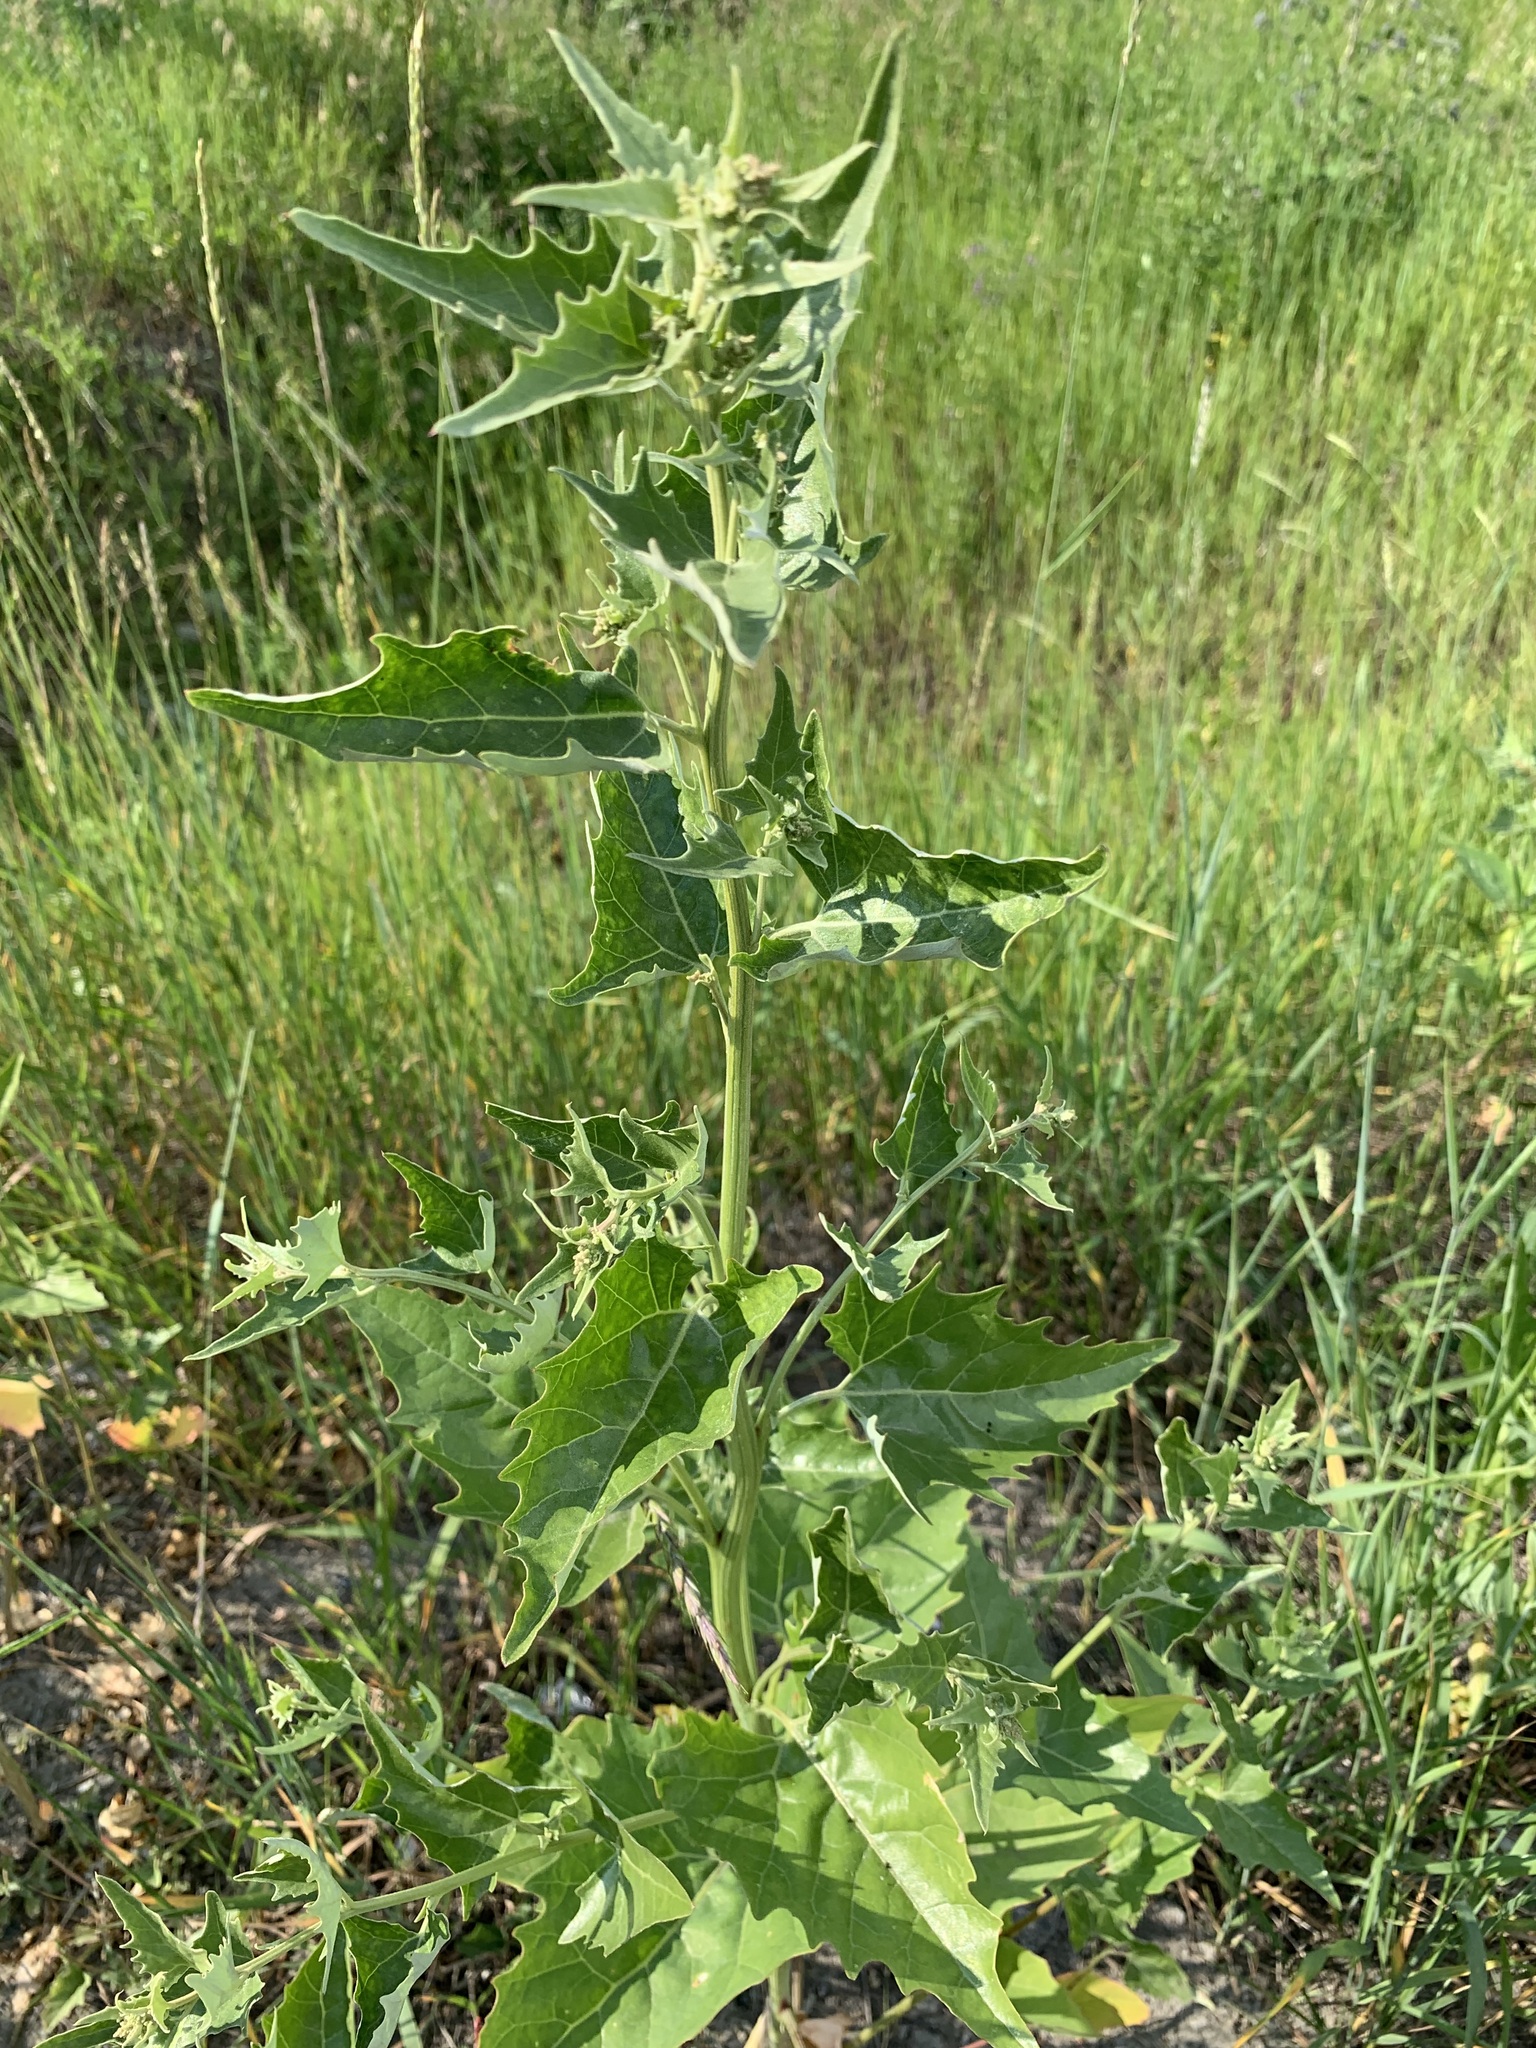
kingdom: Plantae
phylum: Tracheophyta
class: Magnoliopsida
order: Caryophyllales
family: Amaranthaceae
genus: Atriplex
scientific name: Atriplex sagittata
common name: Purple orache
